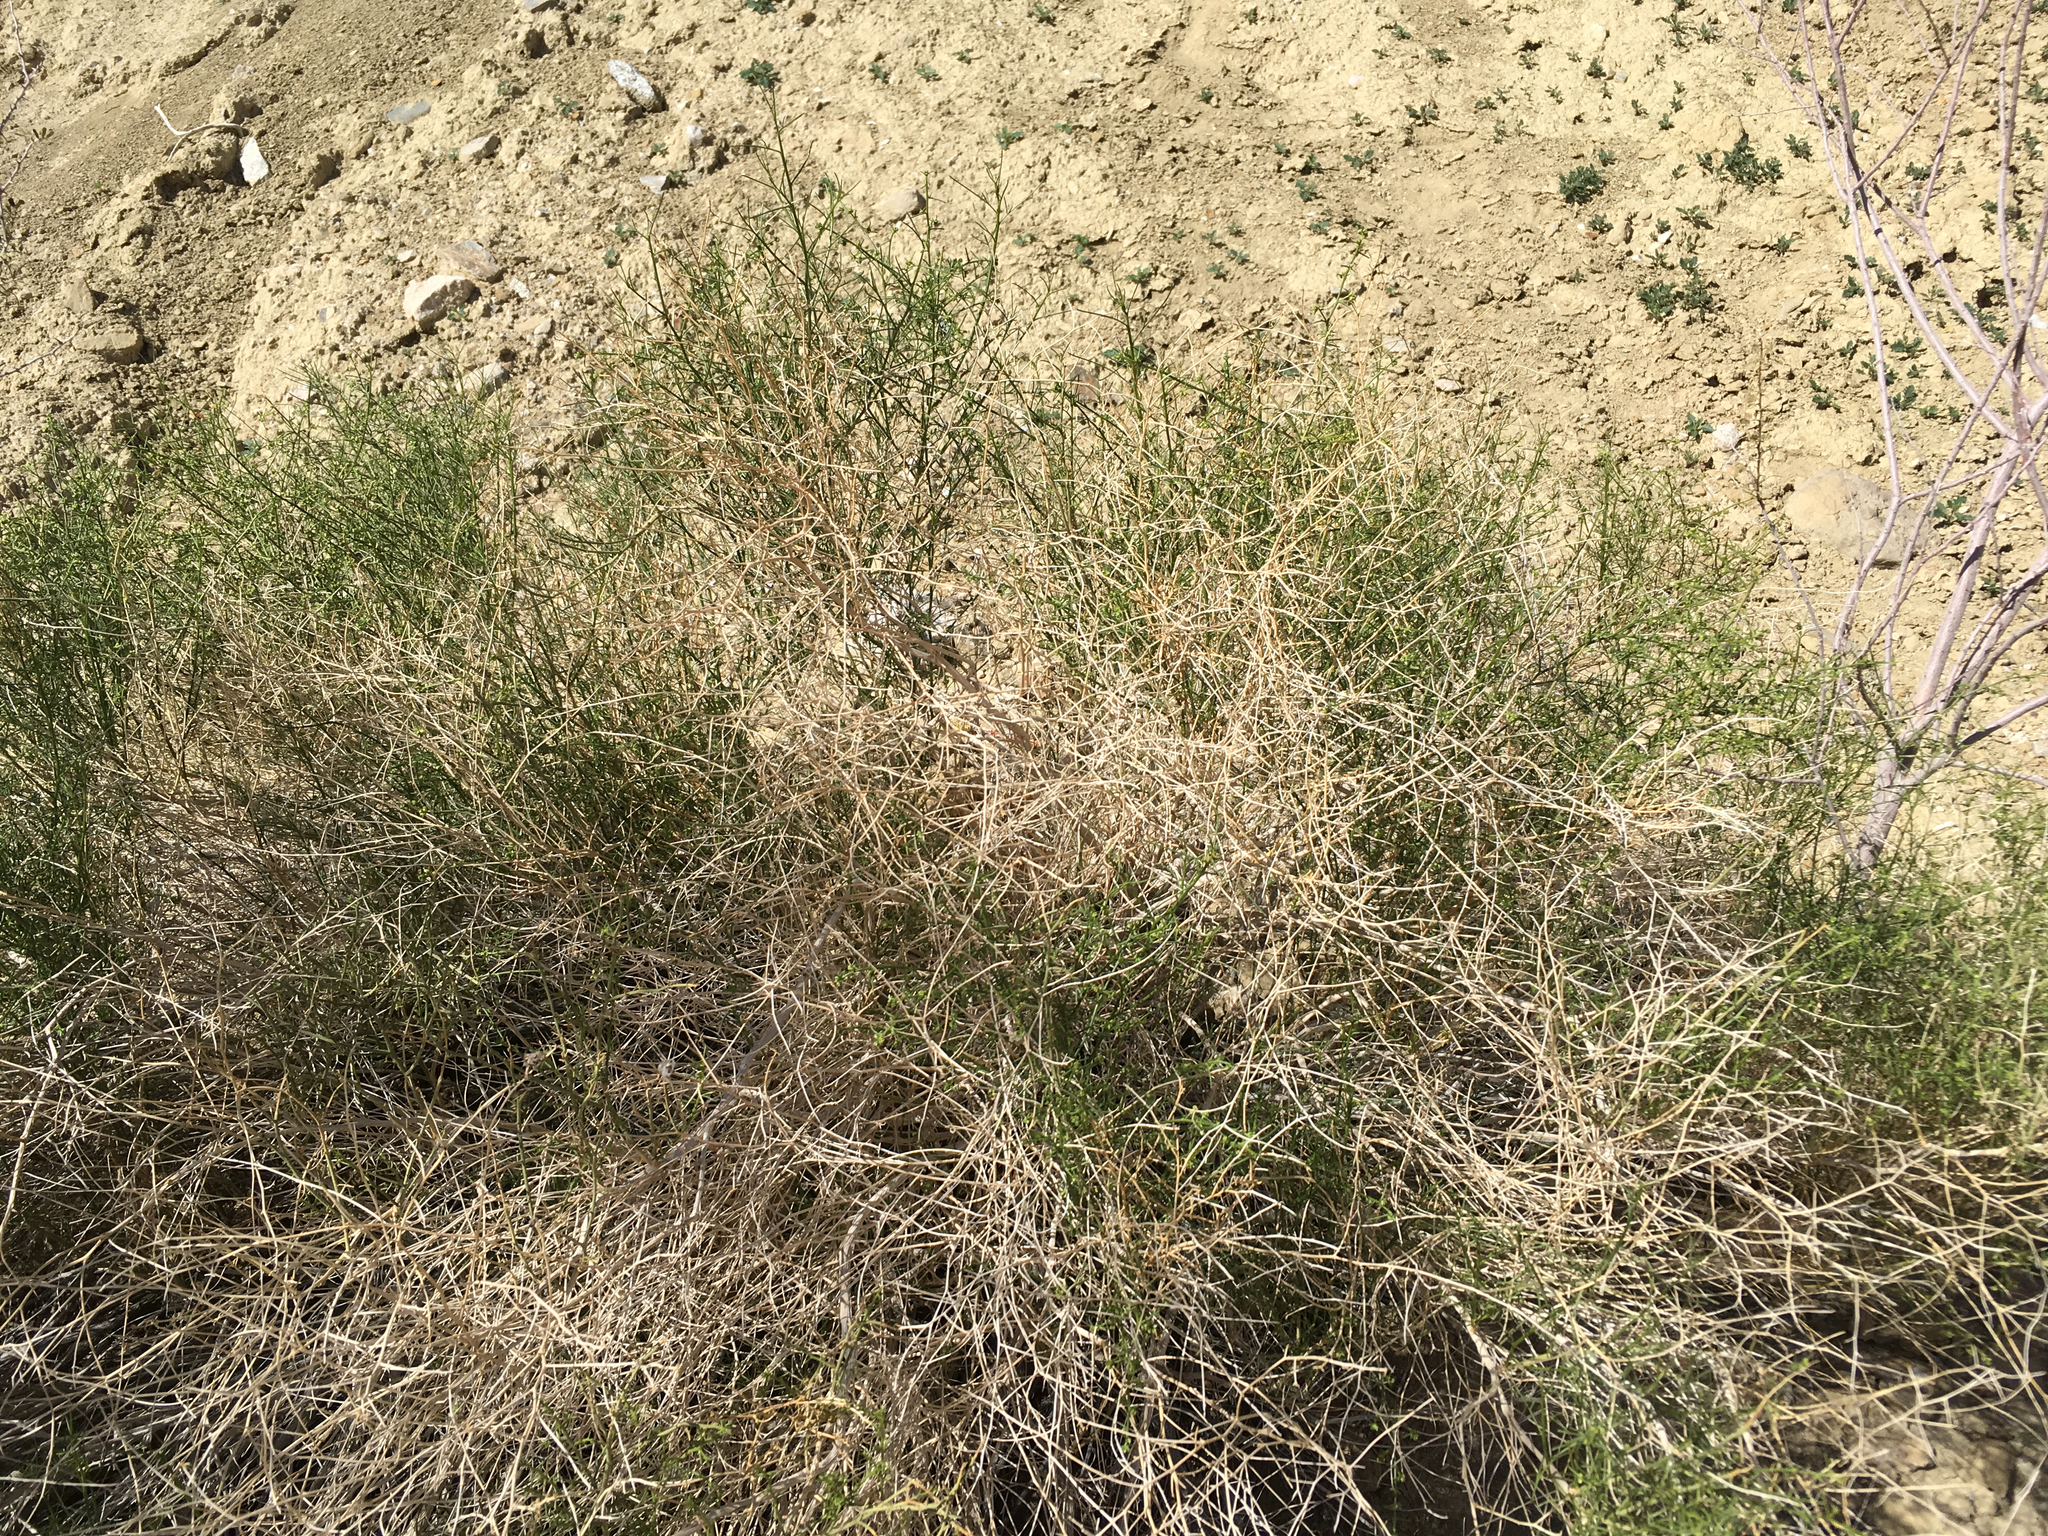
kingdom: Plantae
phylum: Tracheophyta
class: Magnoliopsida
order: Asterales
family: Asteraceae
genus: Ambrosia
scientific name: Ambrosia salsola
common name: Burrobrush
